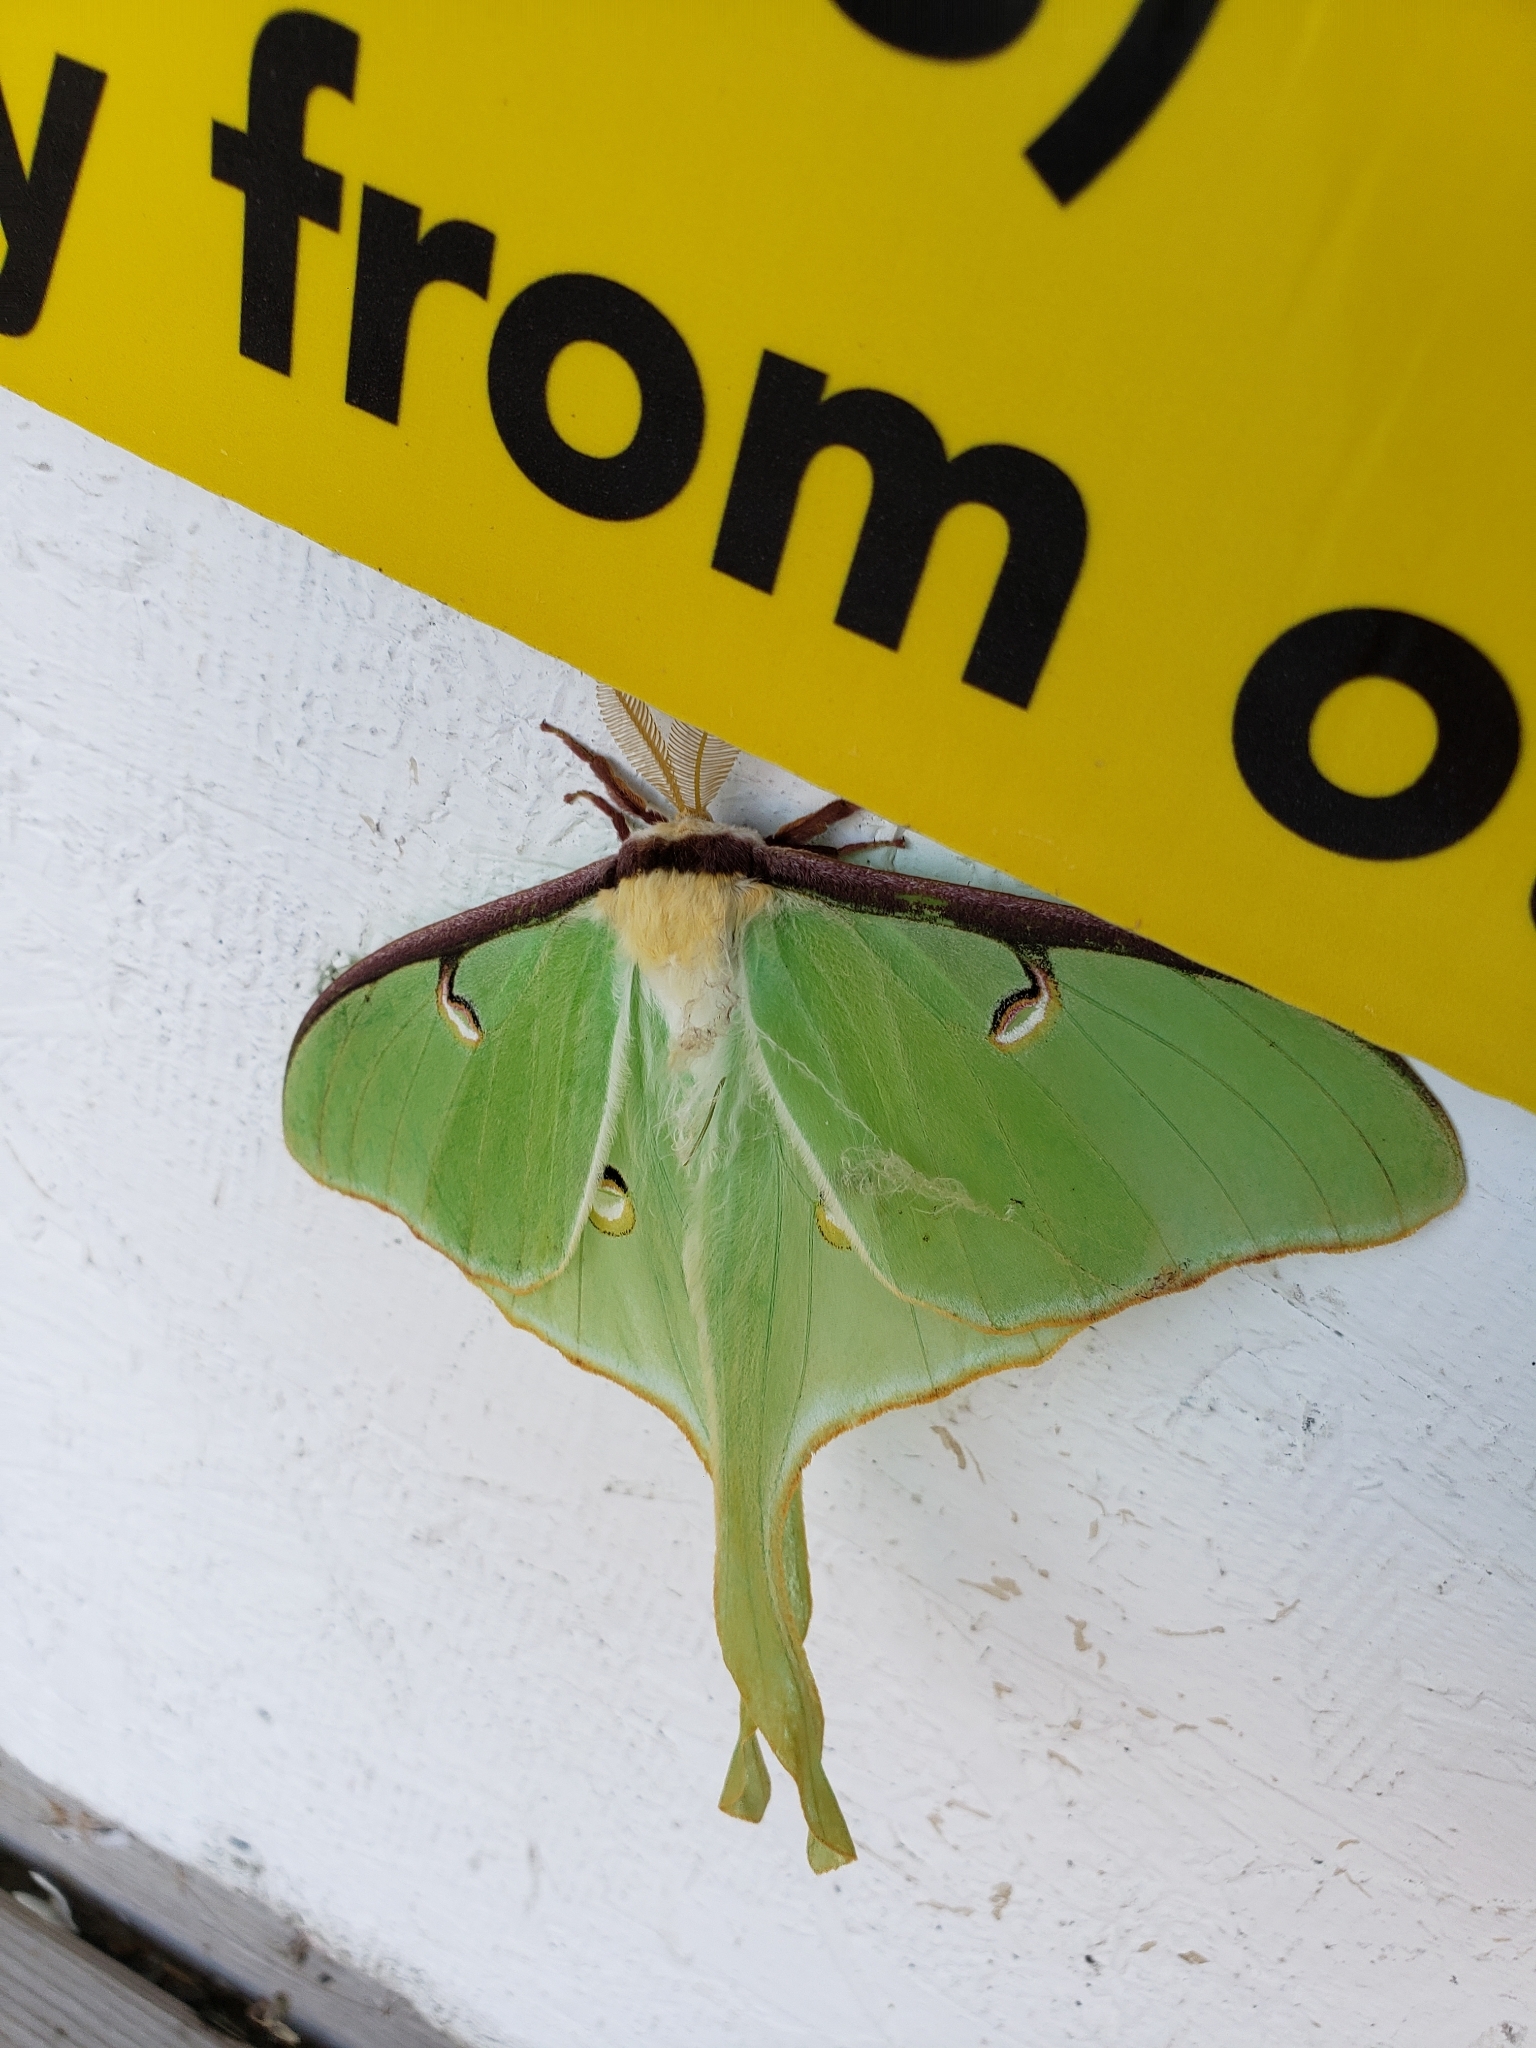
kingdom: Animalia
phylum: Arthropoda
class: Insecta
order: Lepidoptera
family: Saturniidae
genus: Actias
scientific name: Actias luna
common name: Luna moth
